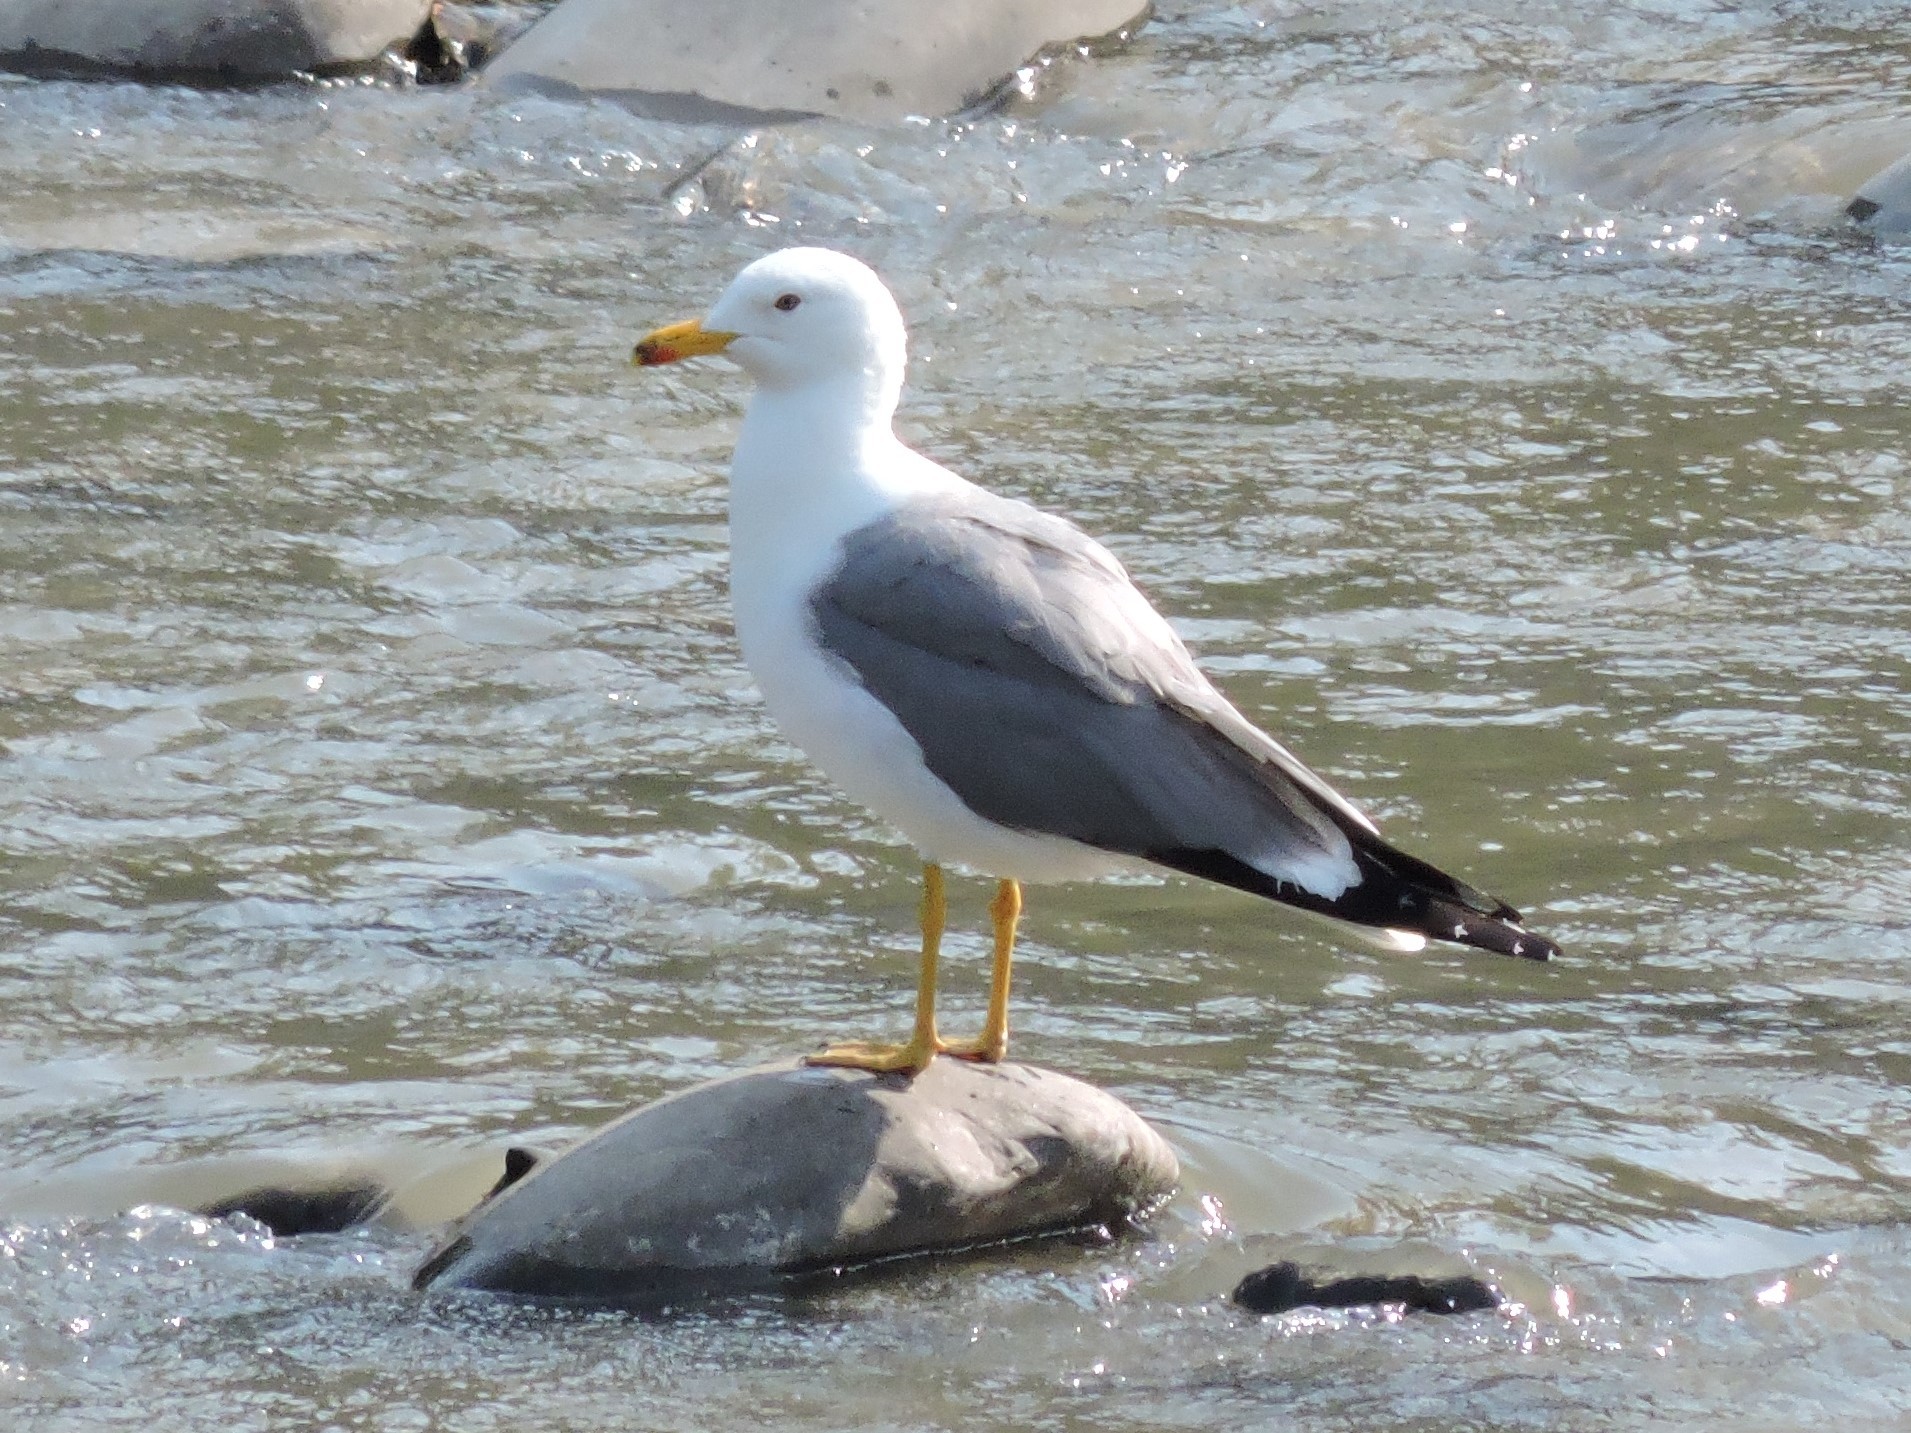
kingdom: Animalia
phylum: Chordata
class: Aves
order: Charadriiformes
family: Laridae
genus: Larus
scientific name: Larus armenicus
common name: Armenian gull
